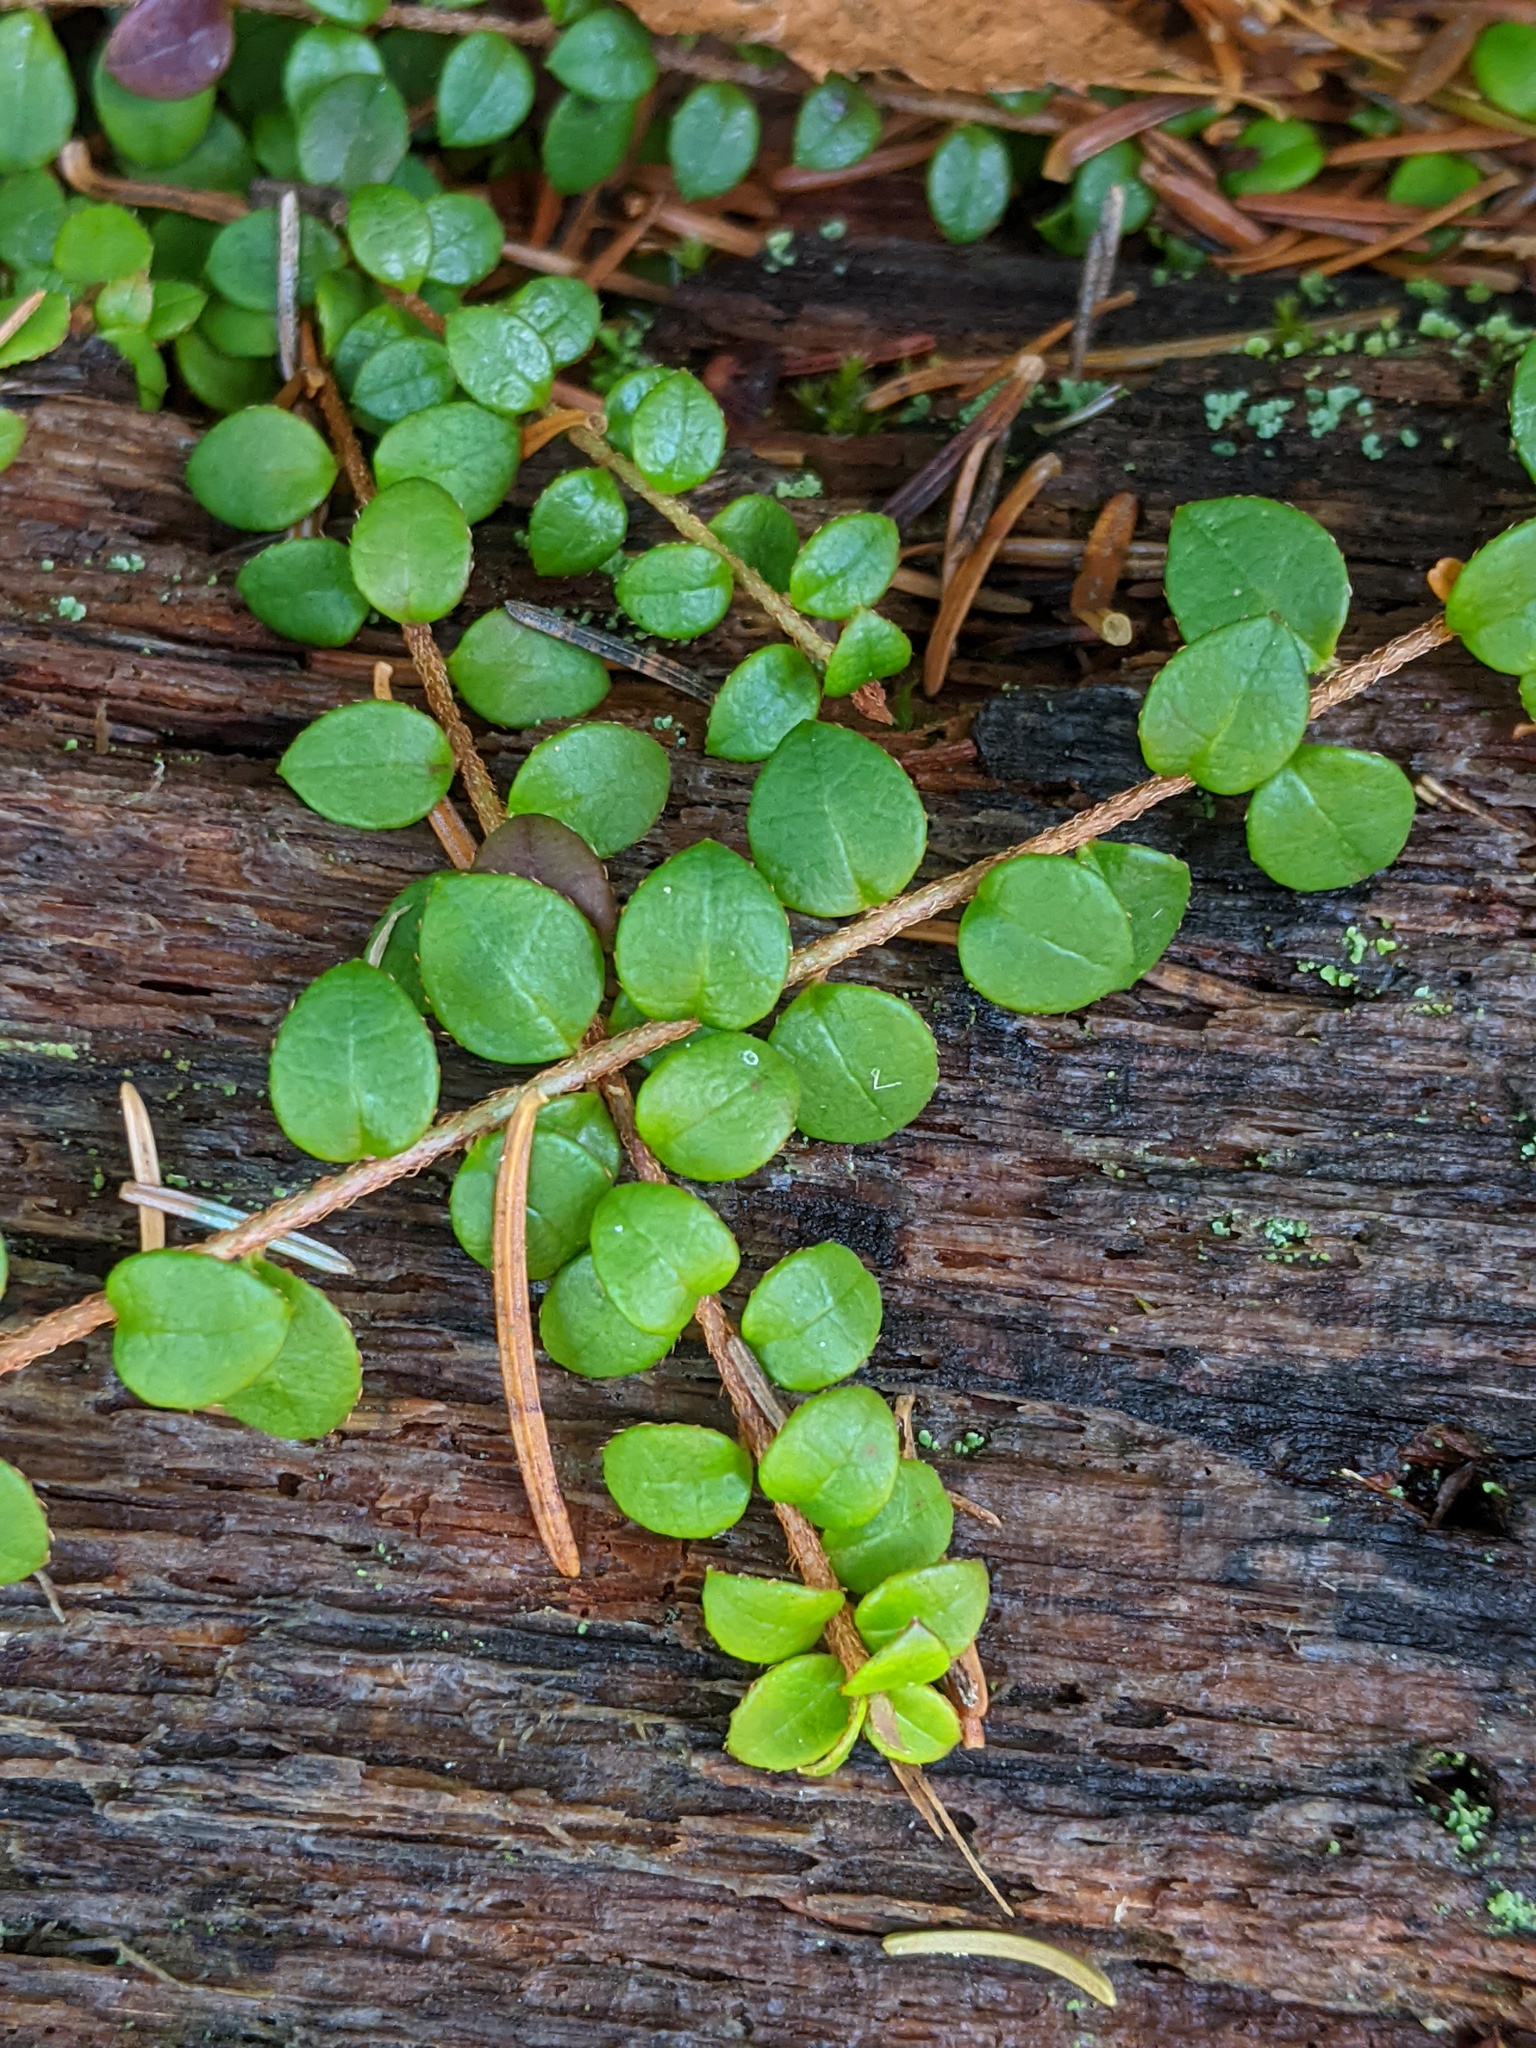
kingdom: Plantae
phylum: Tracheophyta
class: Magnoliopsida
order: Ericales
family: Ericaceae
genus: Gaultheria
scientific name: Gaultheria hispidula
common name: Cancer wintergreen
